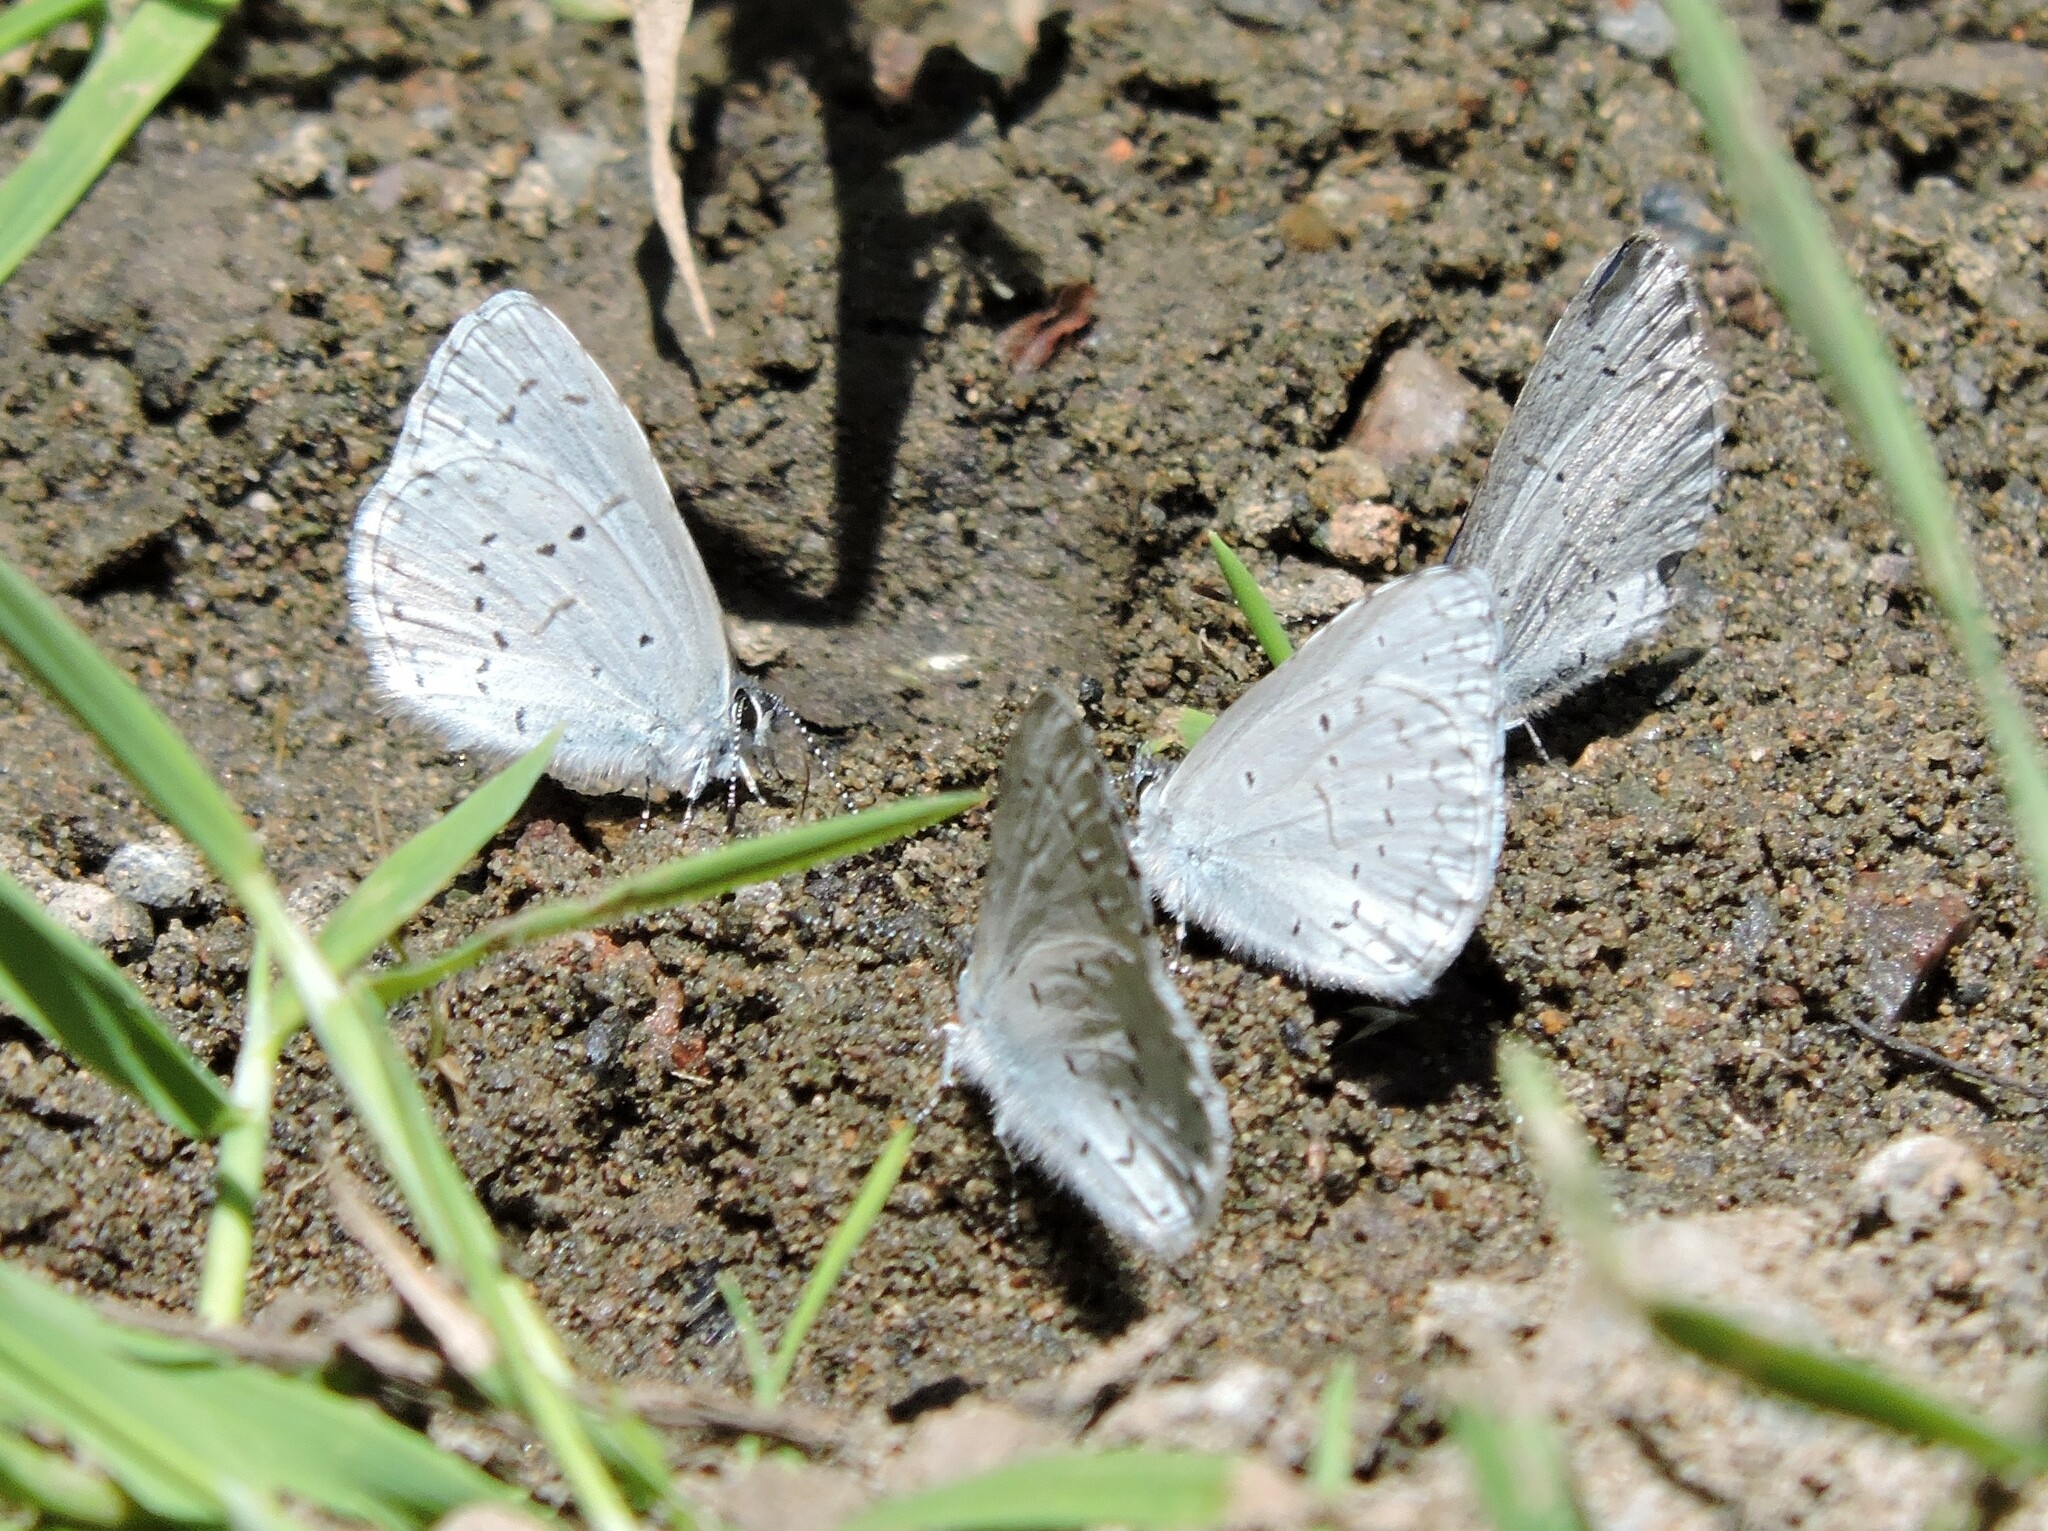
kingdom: Animalia
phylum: Arthropoda
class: Insecta
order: Lepidoptera
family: Lycaenidae
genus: Celastrina
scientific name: Celastrina ladon
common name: Spring azure
